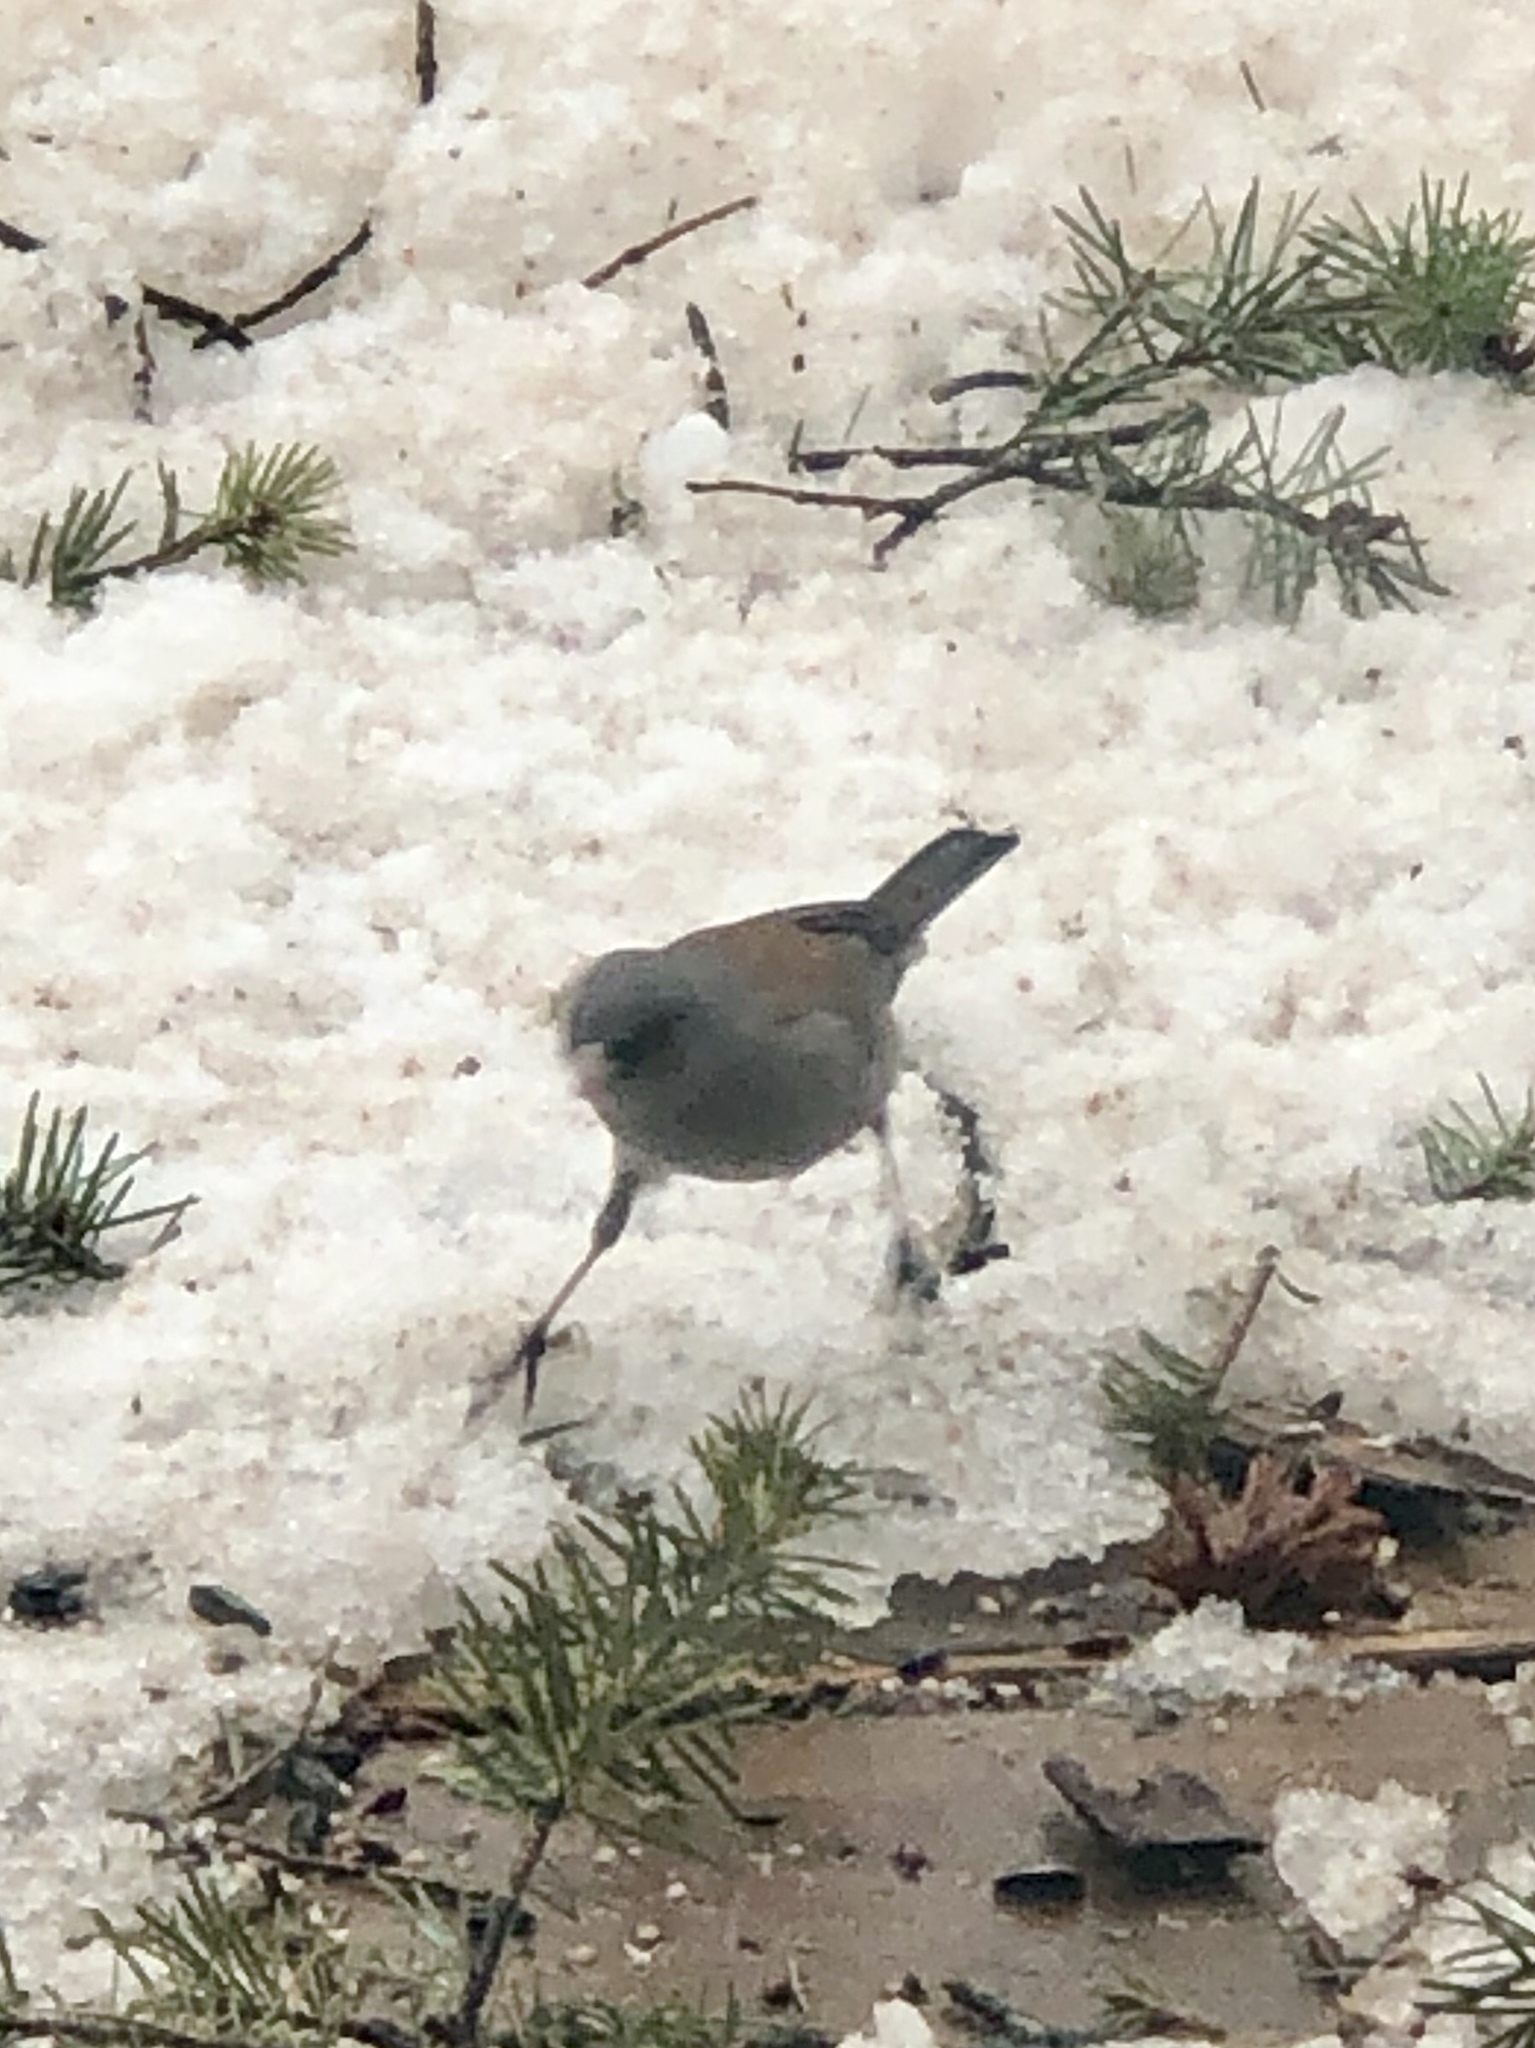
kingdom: Animalia
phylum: Chordata
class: Aves
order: Passeriformes
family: Passerellidae
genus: Junco
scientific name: Junco hyemalis
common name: Dark-eyed junco
